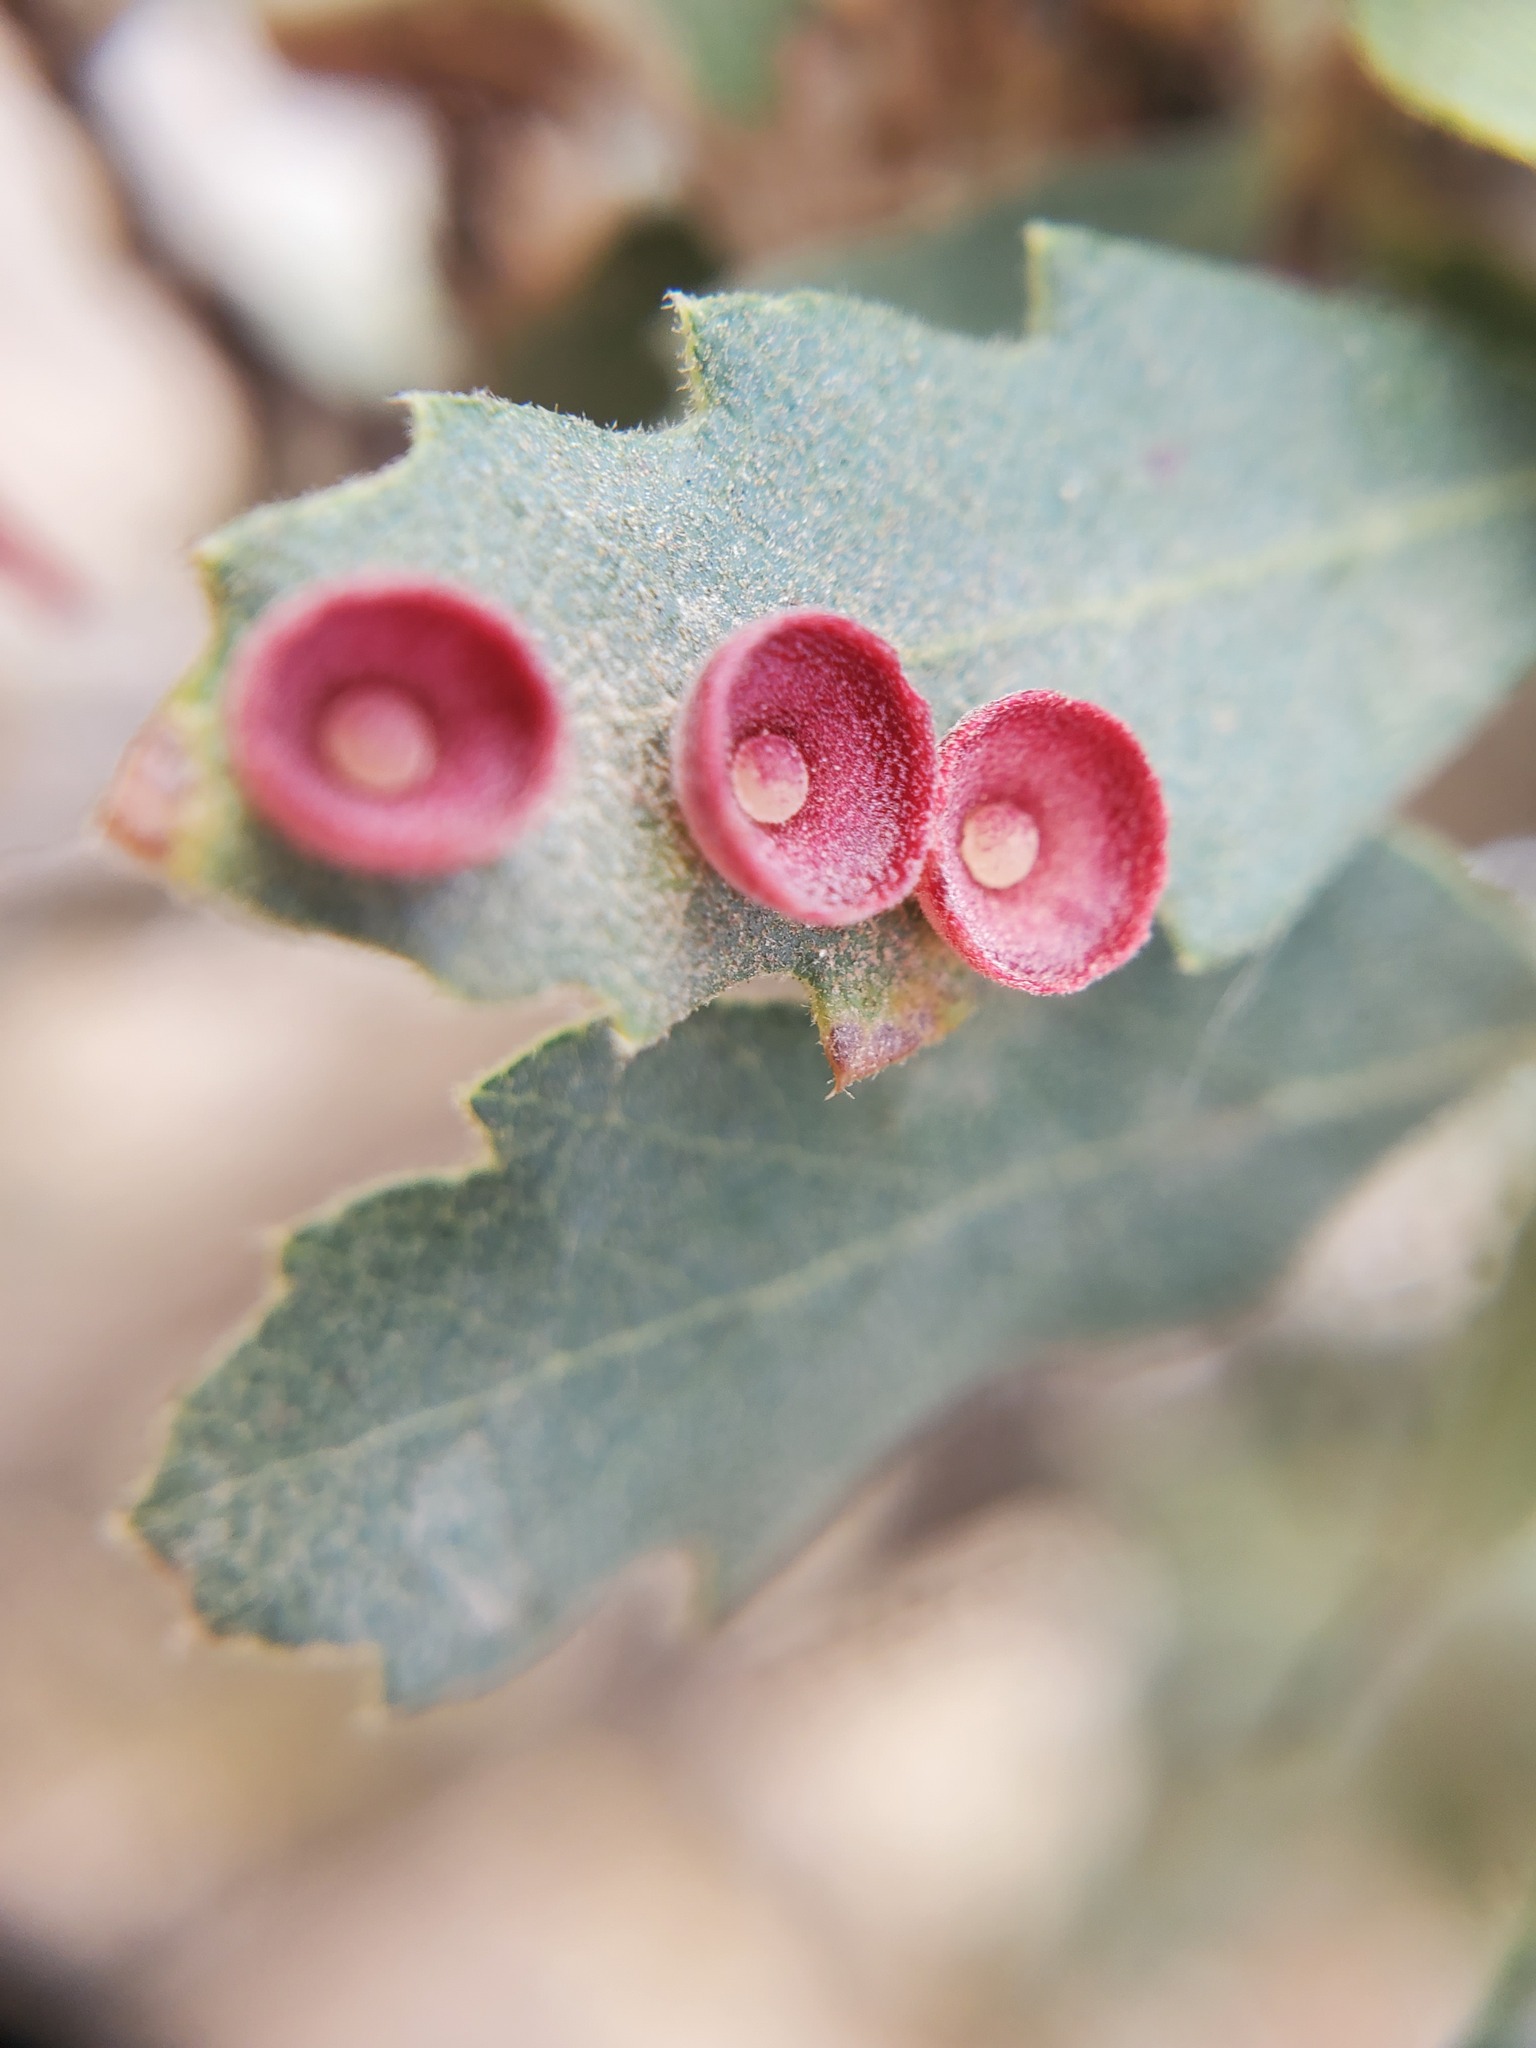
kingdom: Animalia
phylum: Arthropoda
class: Insecta
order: Hymenoptera
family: Cynipidae
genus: Andricus
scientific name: Andricus
